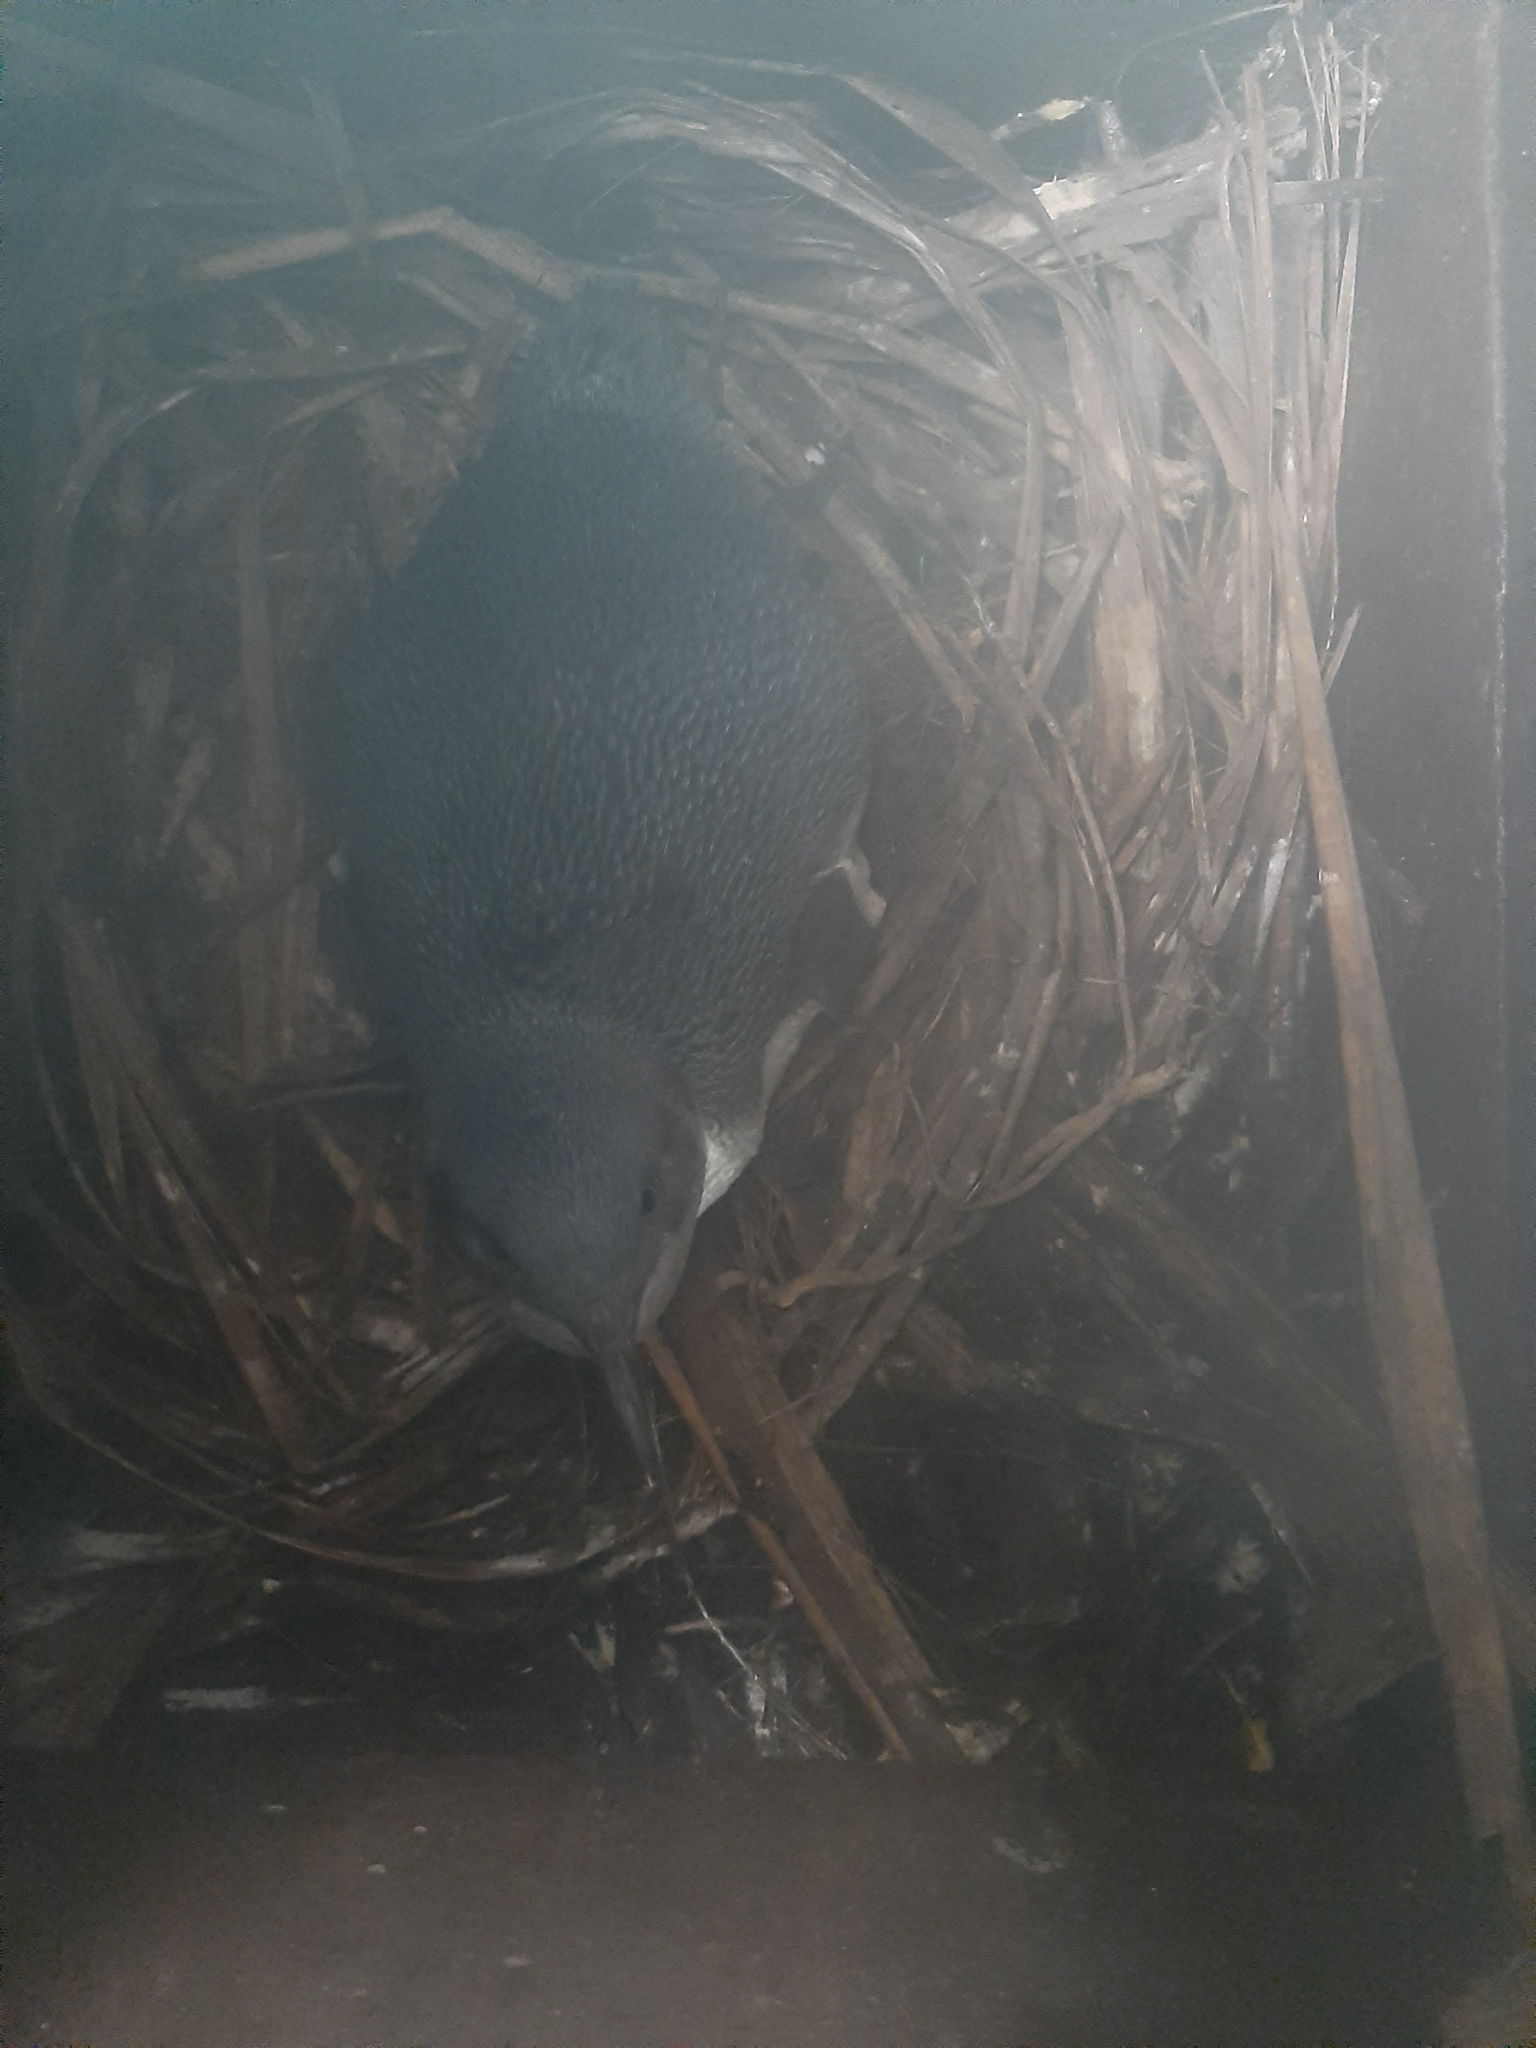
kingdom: Animalia
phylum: Chordata
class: Aves
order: Sphenisciformes
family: Spheniscidae
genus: Eudyptula
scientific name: Eudyptula minor
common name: Little penguin
